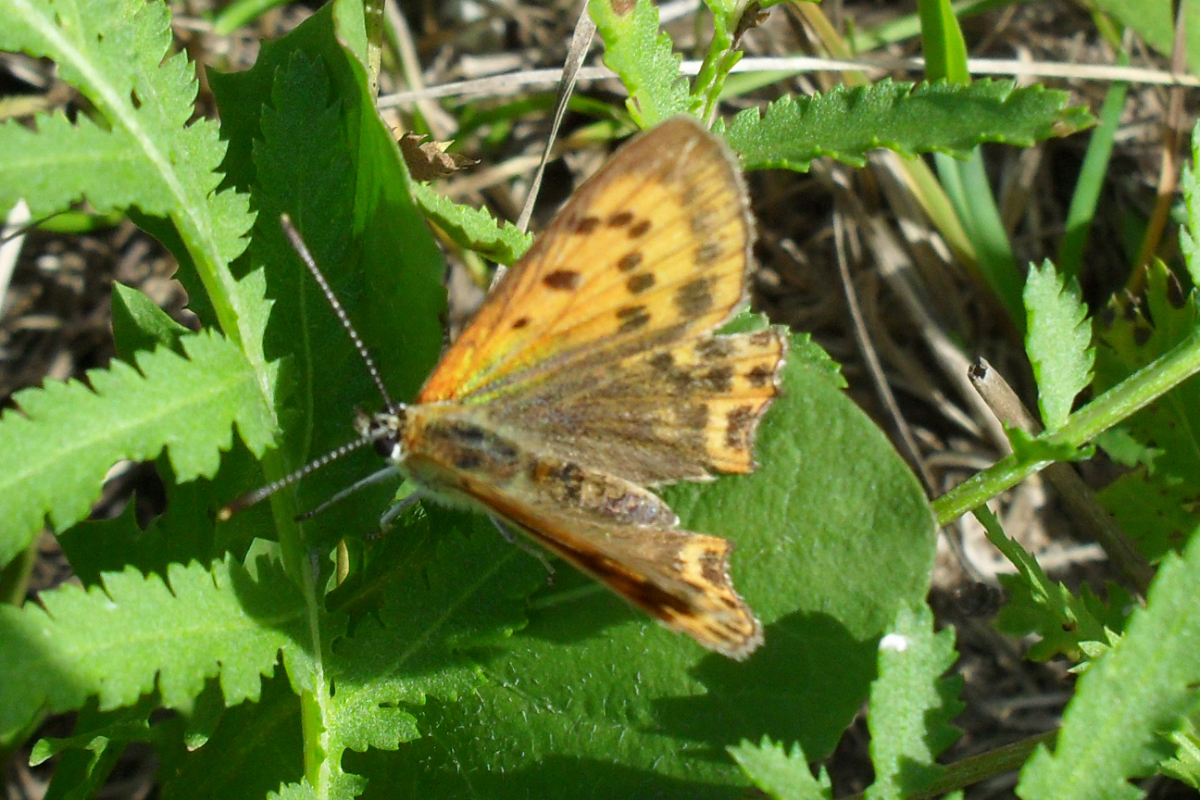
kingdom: Animalia
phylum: Arthropoda
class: Insecta
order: Lepidoptera
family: Lycaenidae
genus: Lycaena
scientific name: Lycaena virgaureae
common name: Scarce copper
